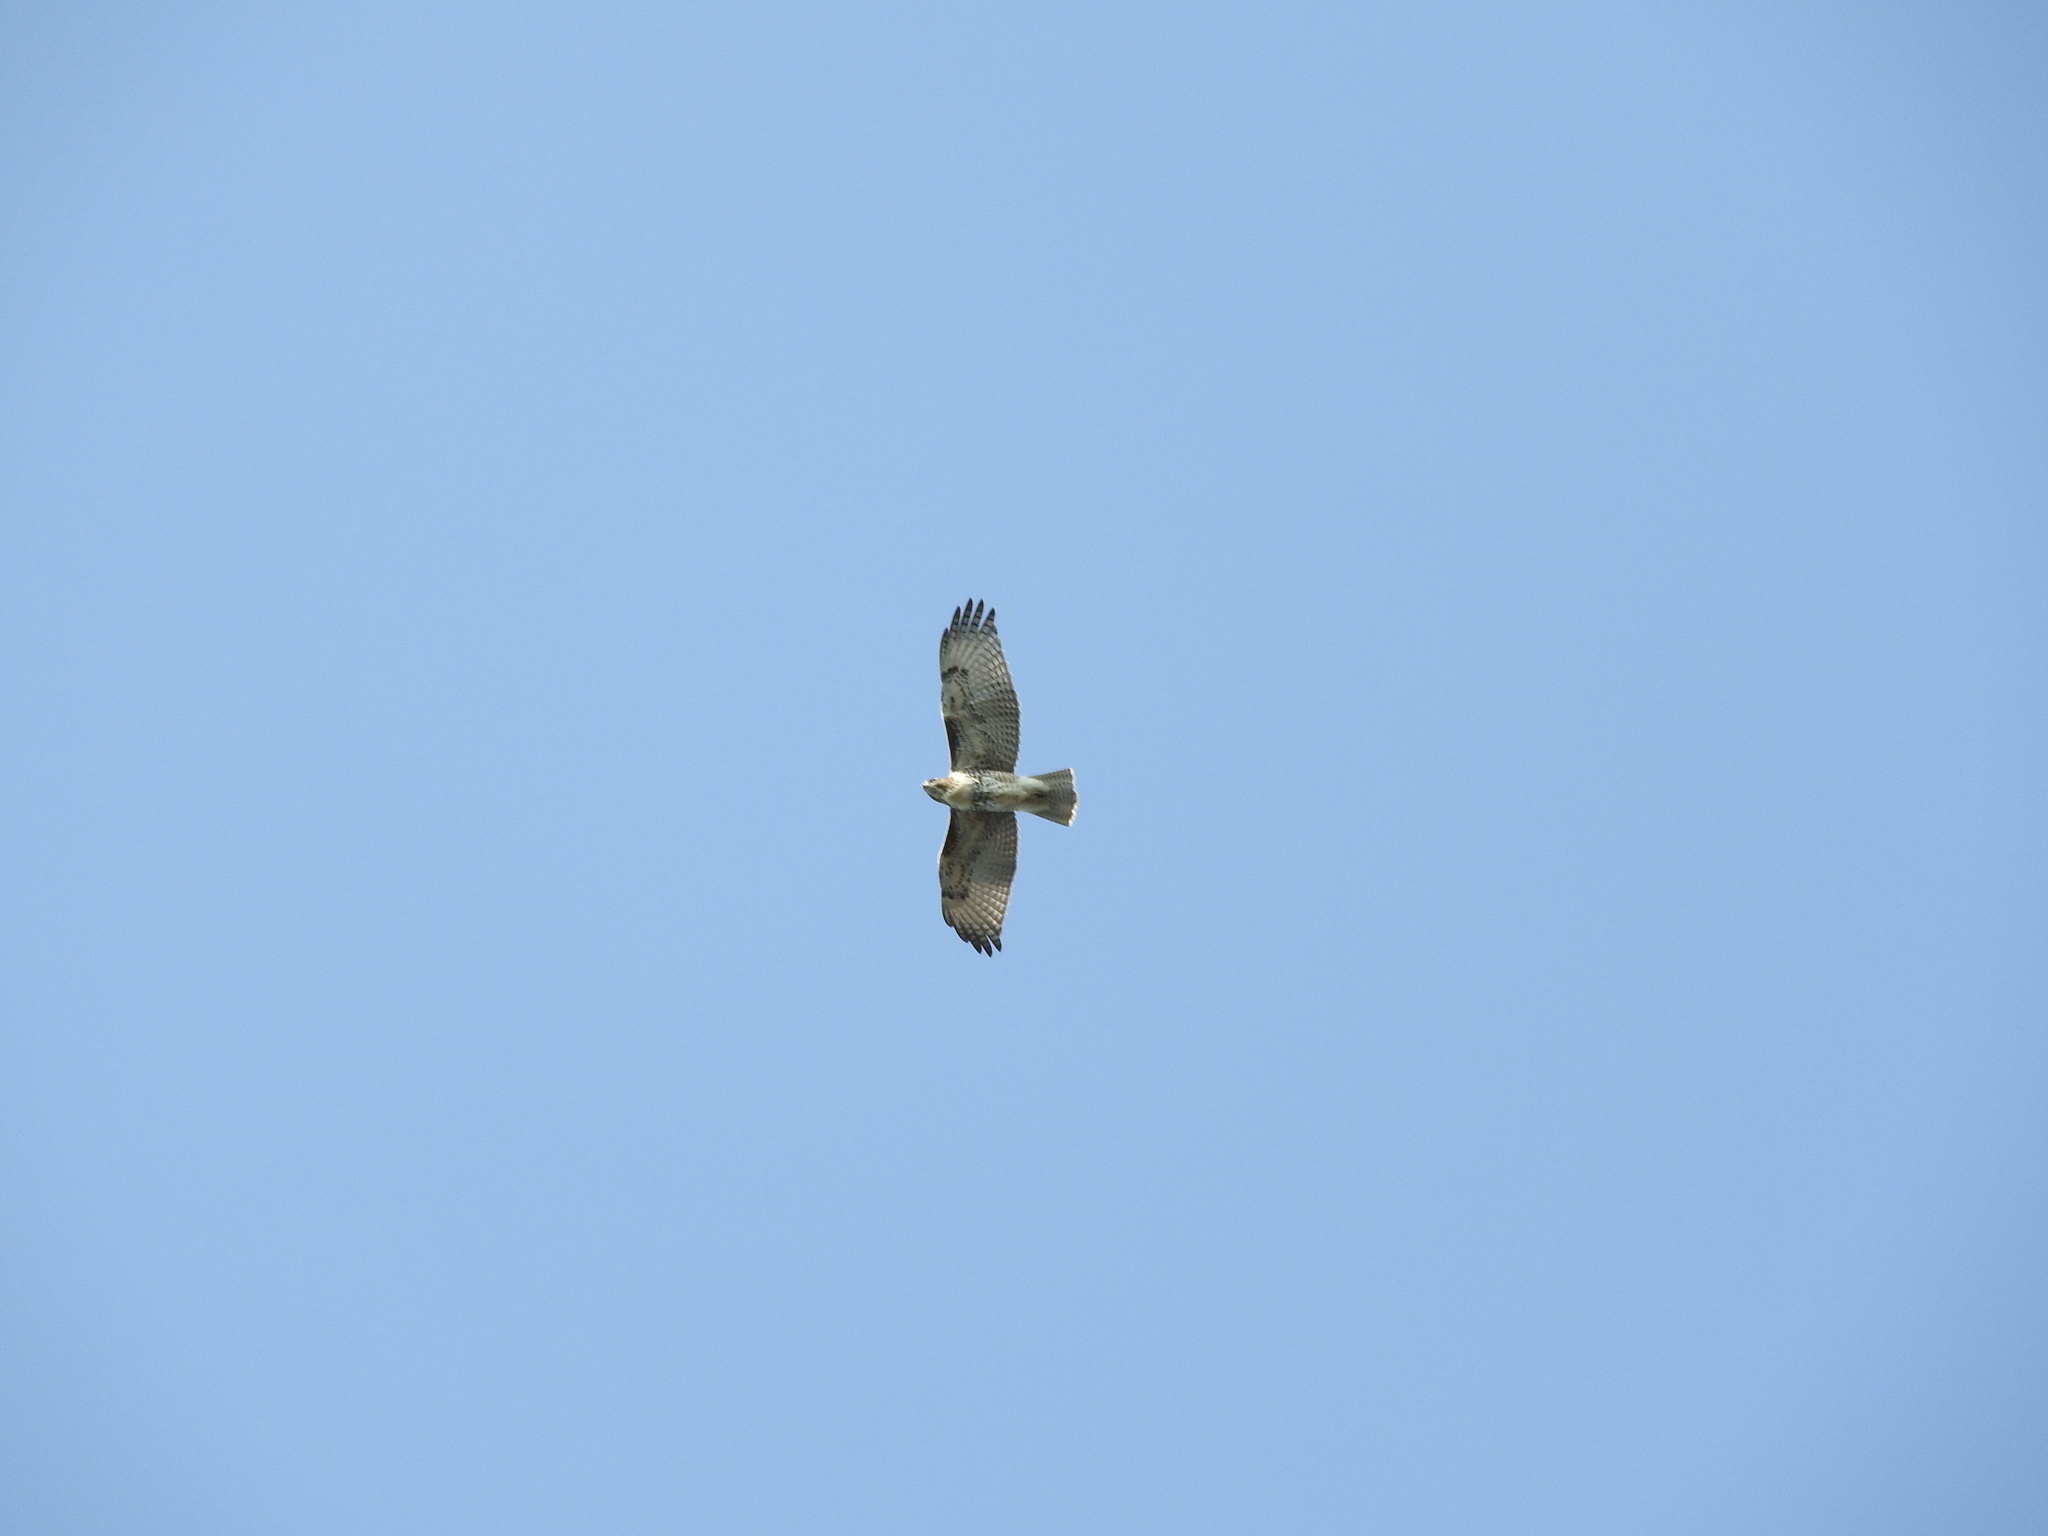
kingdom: Animalia
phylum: Chordata
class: Aves
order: Accipitriformes
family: Accipitridae
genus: Buteo
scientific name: Buteo jamaicensis
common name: Red-tailed hawk
